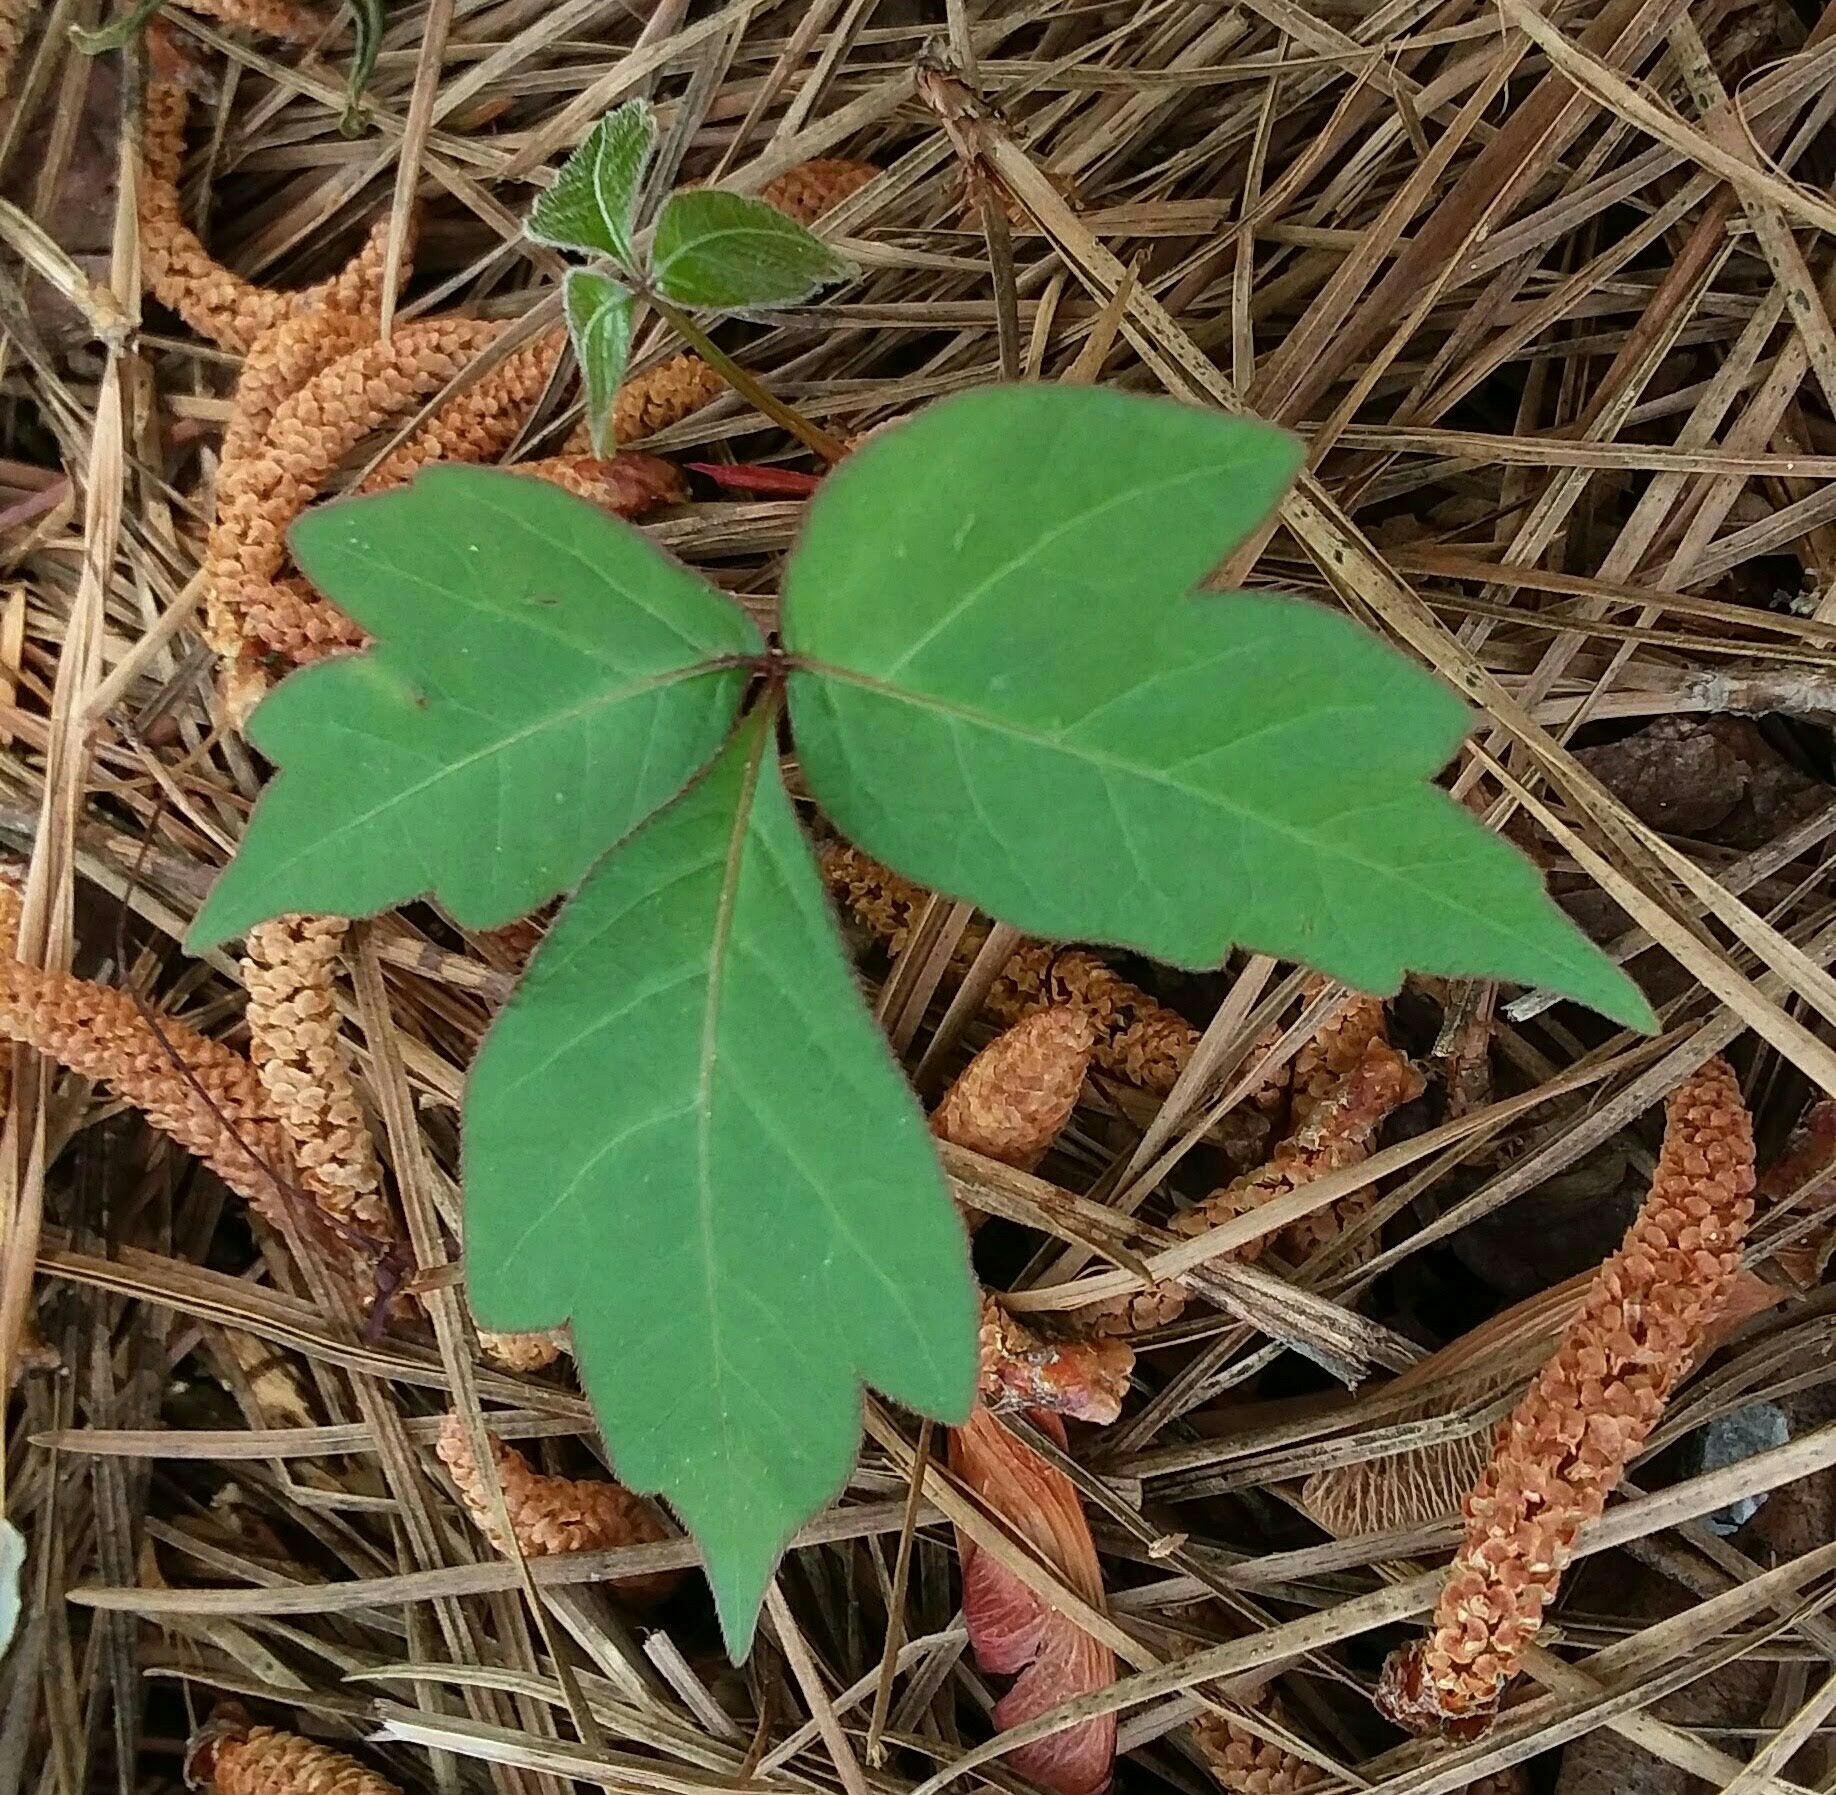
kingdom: Plantae
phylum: Tracheophyta
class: Magnoliopsida
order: Sapindales
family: Anacardiaceae
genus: Toxicodendron
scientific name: Toxicodendron radicans
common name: Poison ivy
